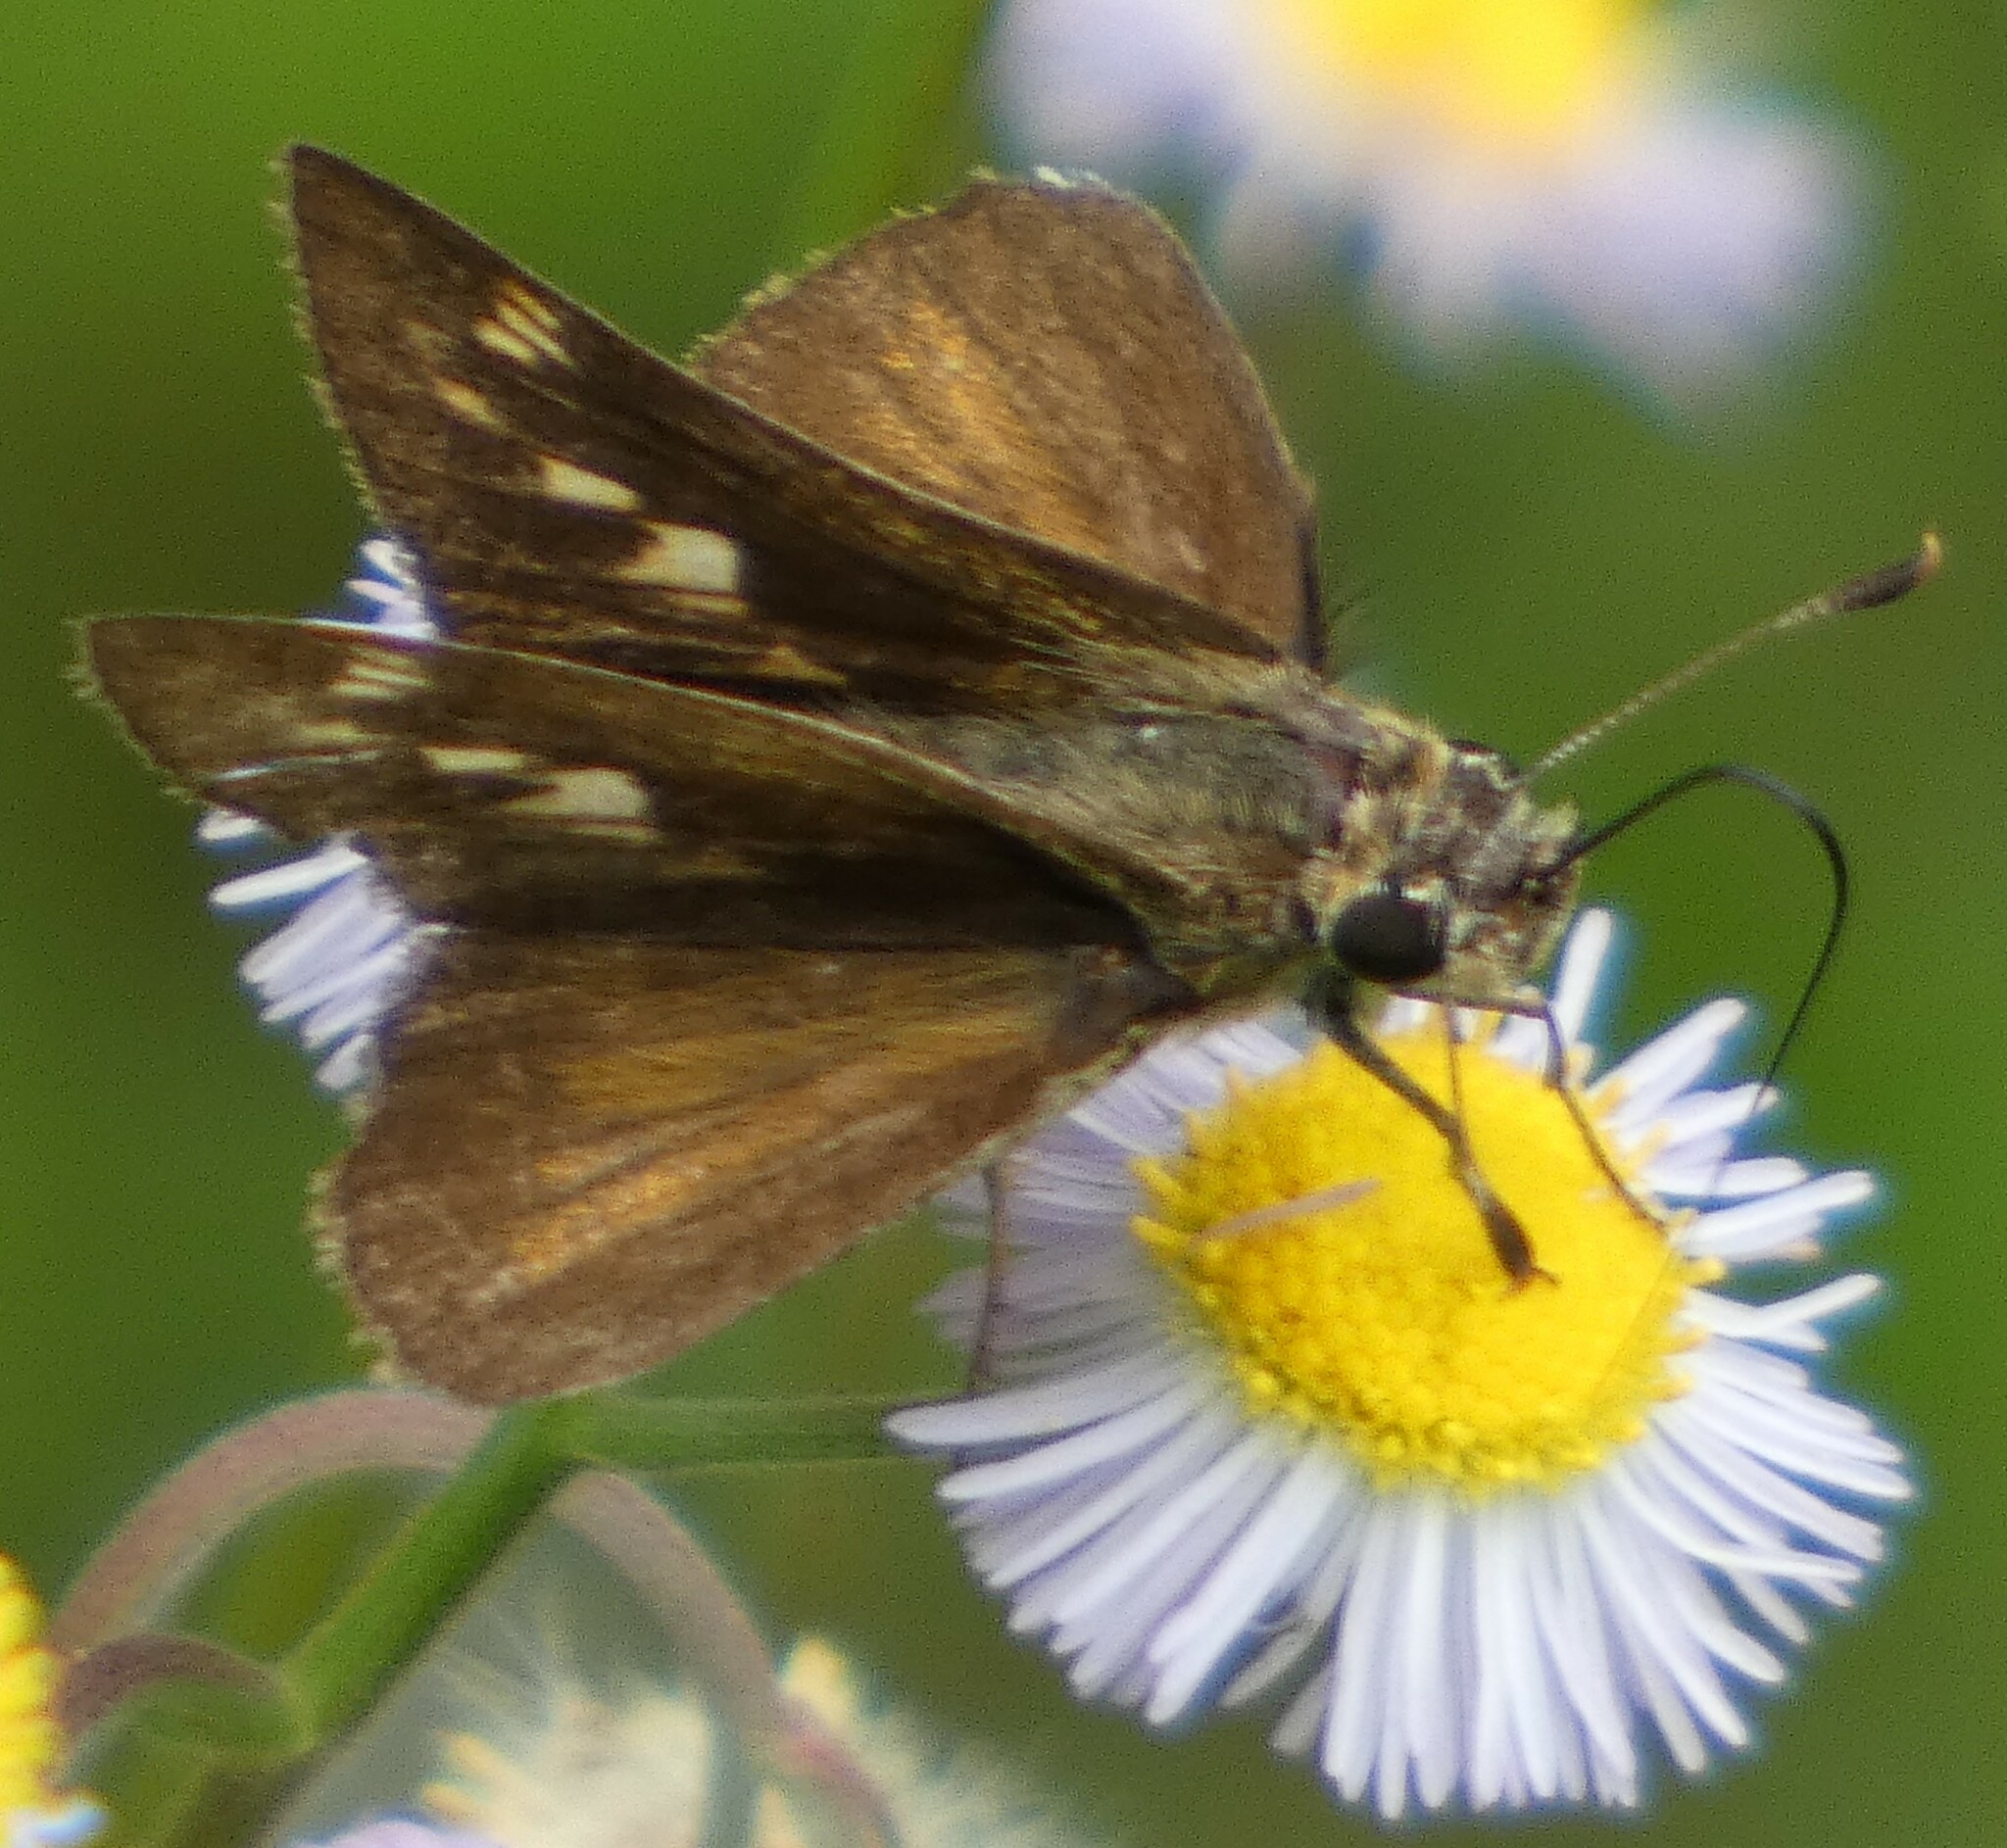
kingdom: Animalia
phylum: Arthropoda
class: Insecta
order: Lepidoptera
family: Hesperiidae
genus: Polites
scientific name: Polites vibex
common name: Whirlabout
